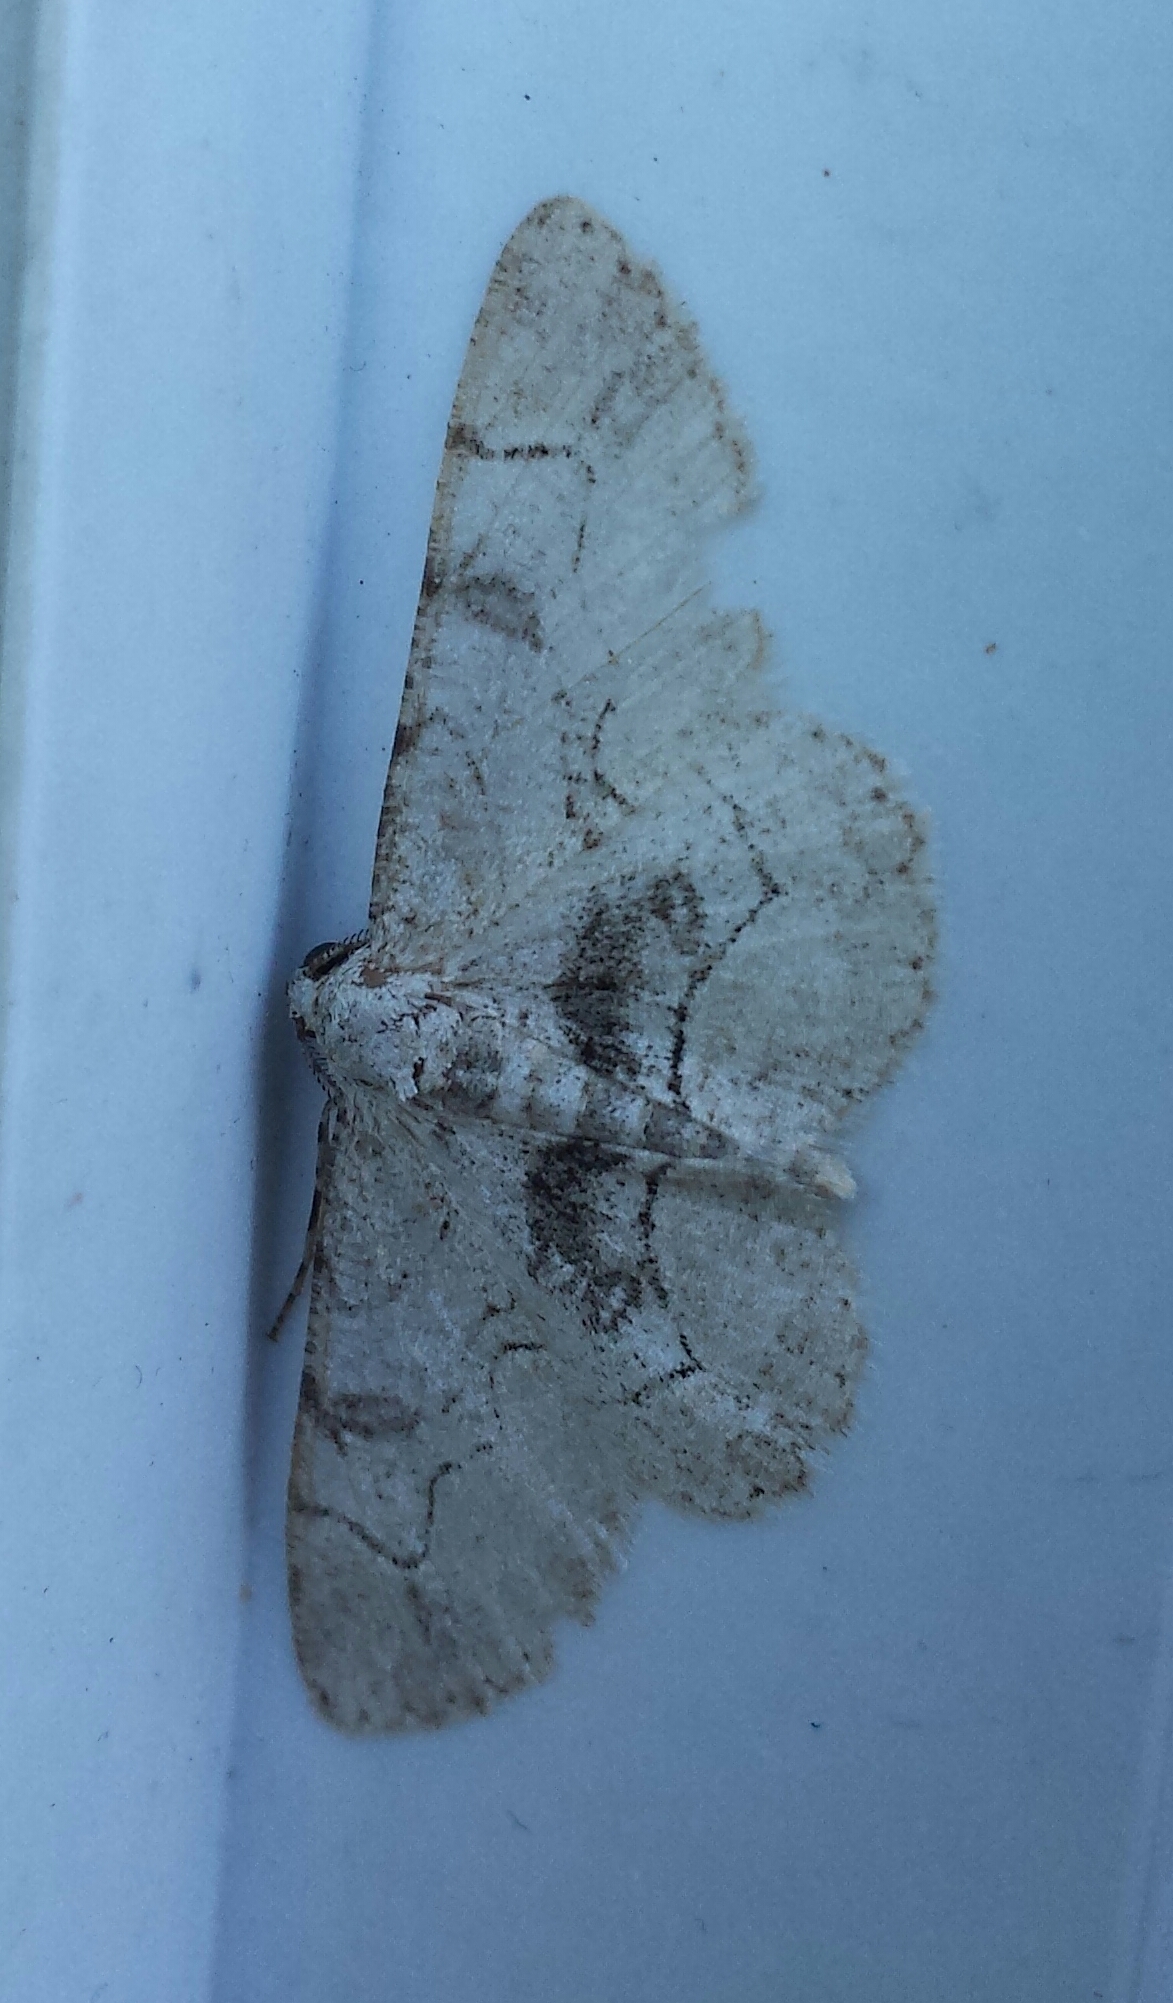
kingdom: Animalia
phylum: Arthropoda
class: Insecta
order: Lepidoptera
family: Geometridae
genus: Iridopsis
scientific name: Iridopsis larvaria
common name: Bent-line gray
